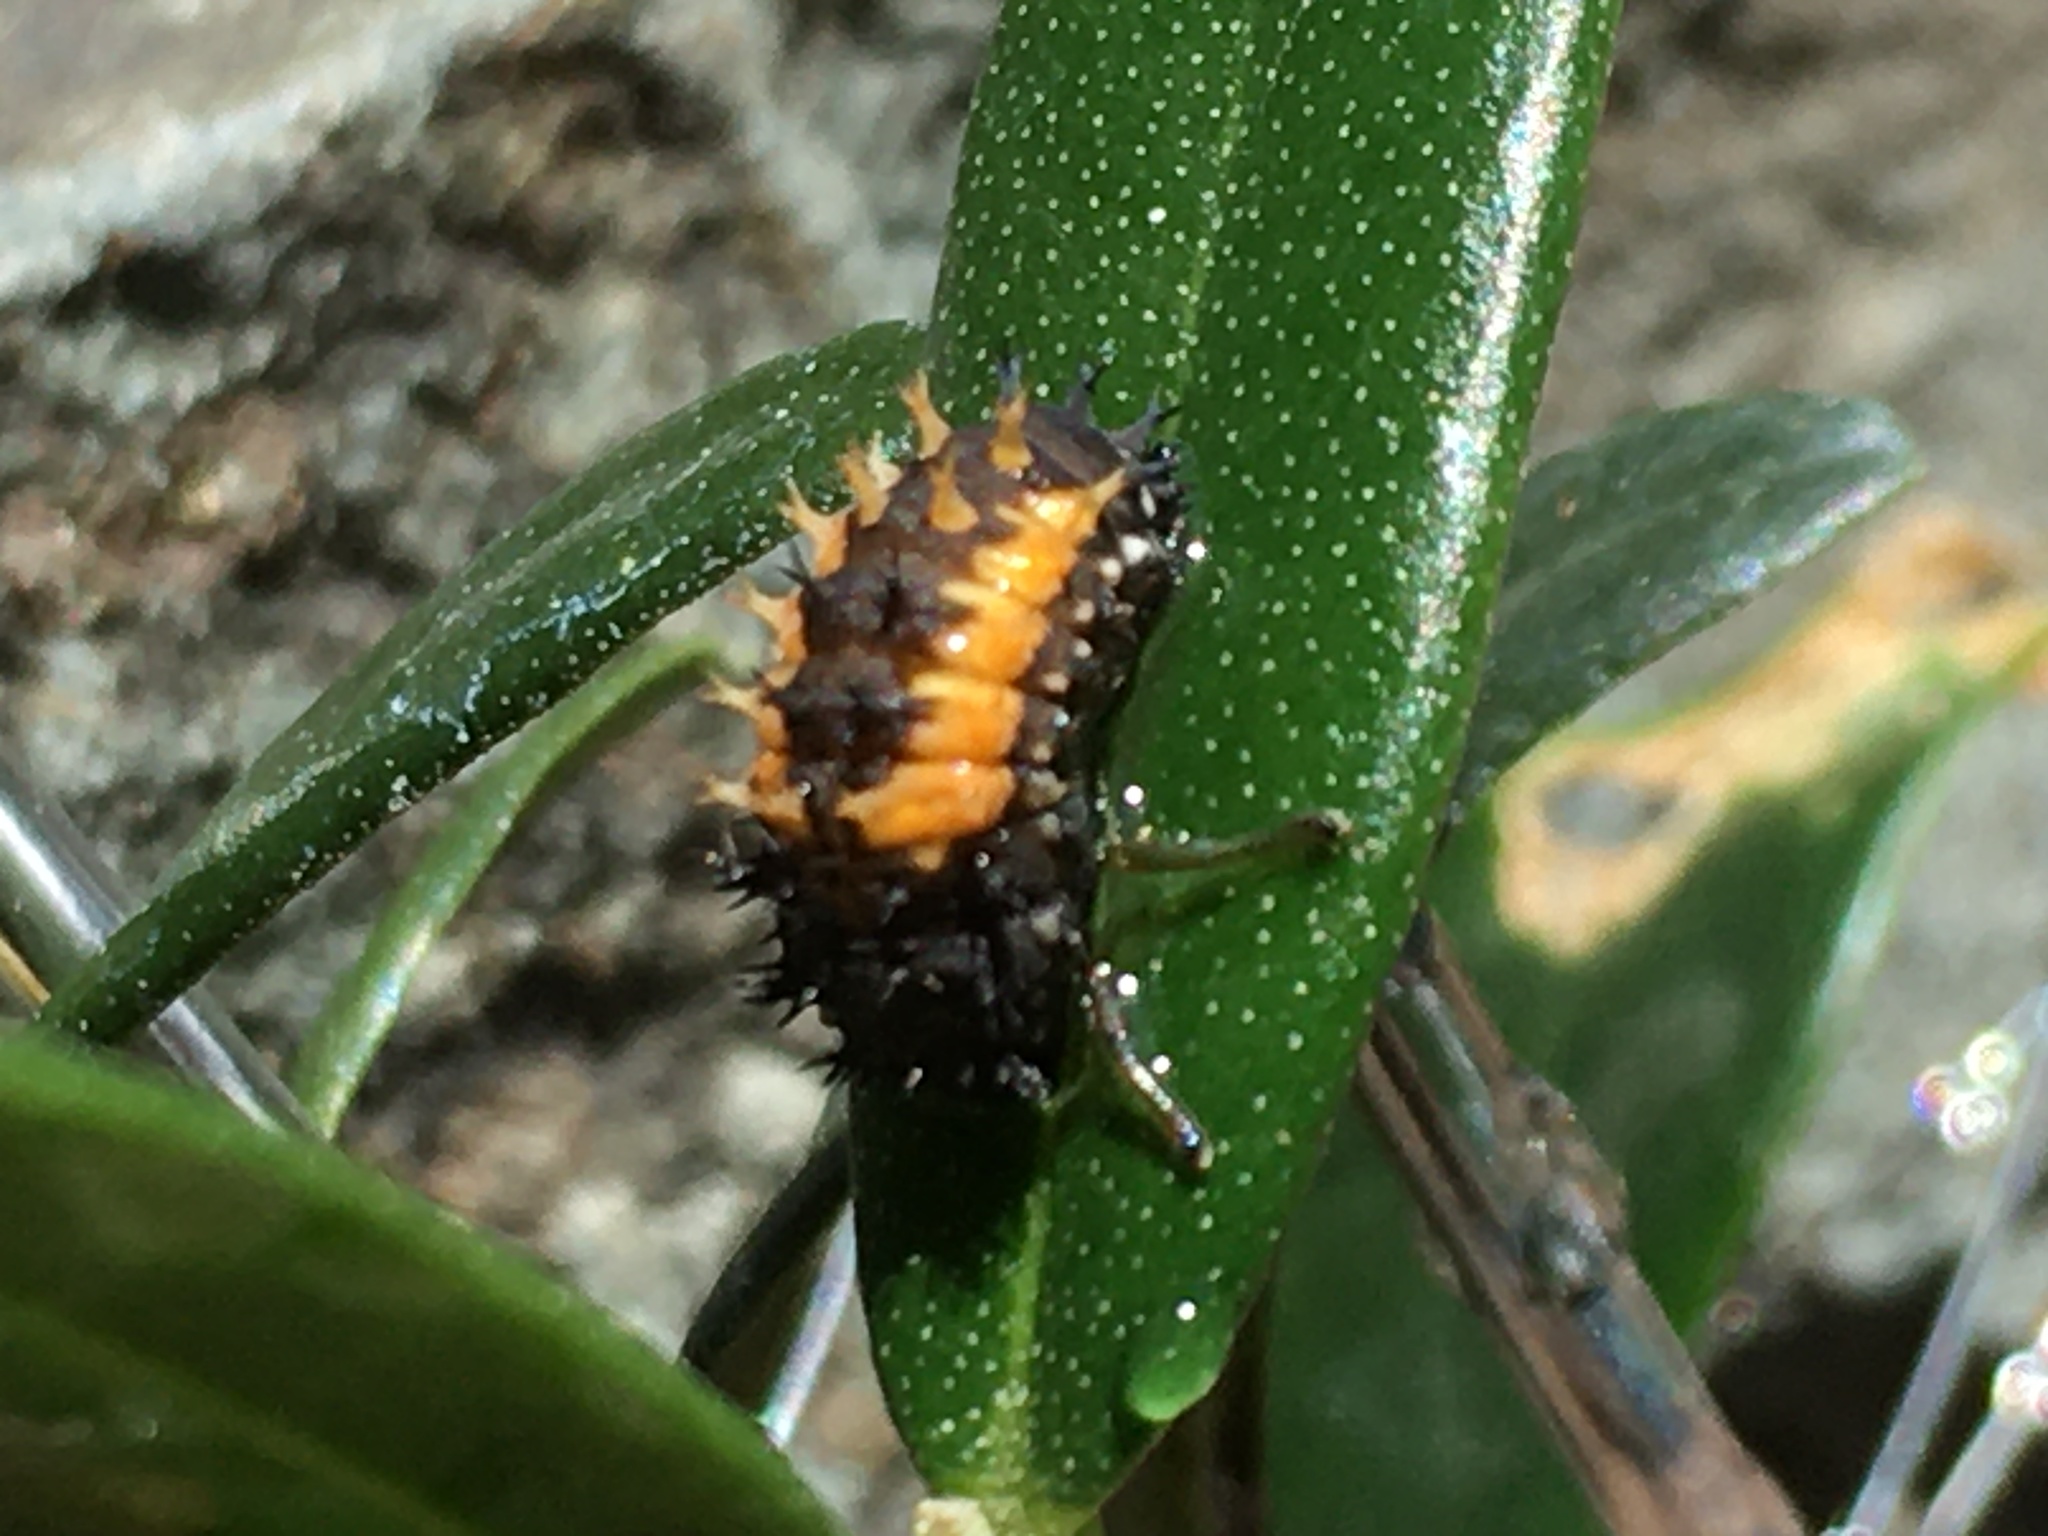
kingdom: Animalia
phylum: Arthropoda
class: Insecta
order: Coleoptera
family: Coccinellidae
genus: Harmonia
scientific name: Harmonia axyridis
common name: Harlequin ladybird
